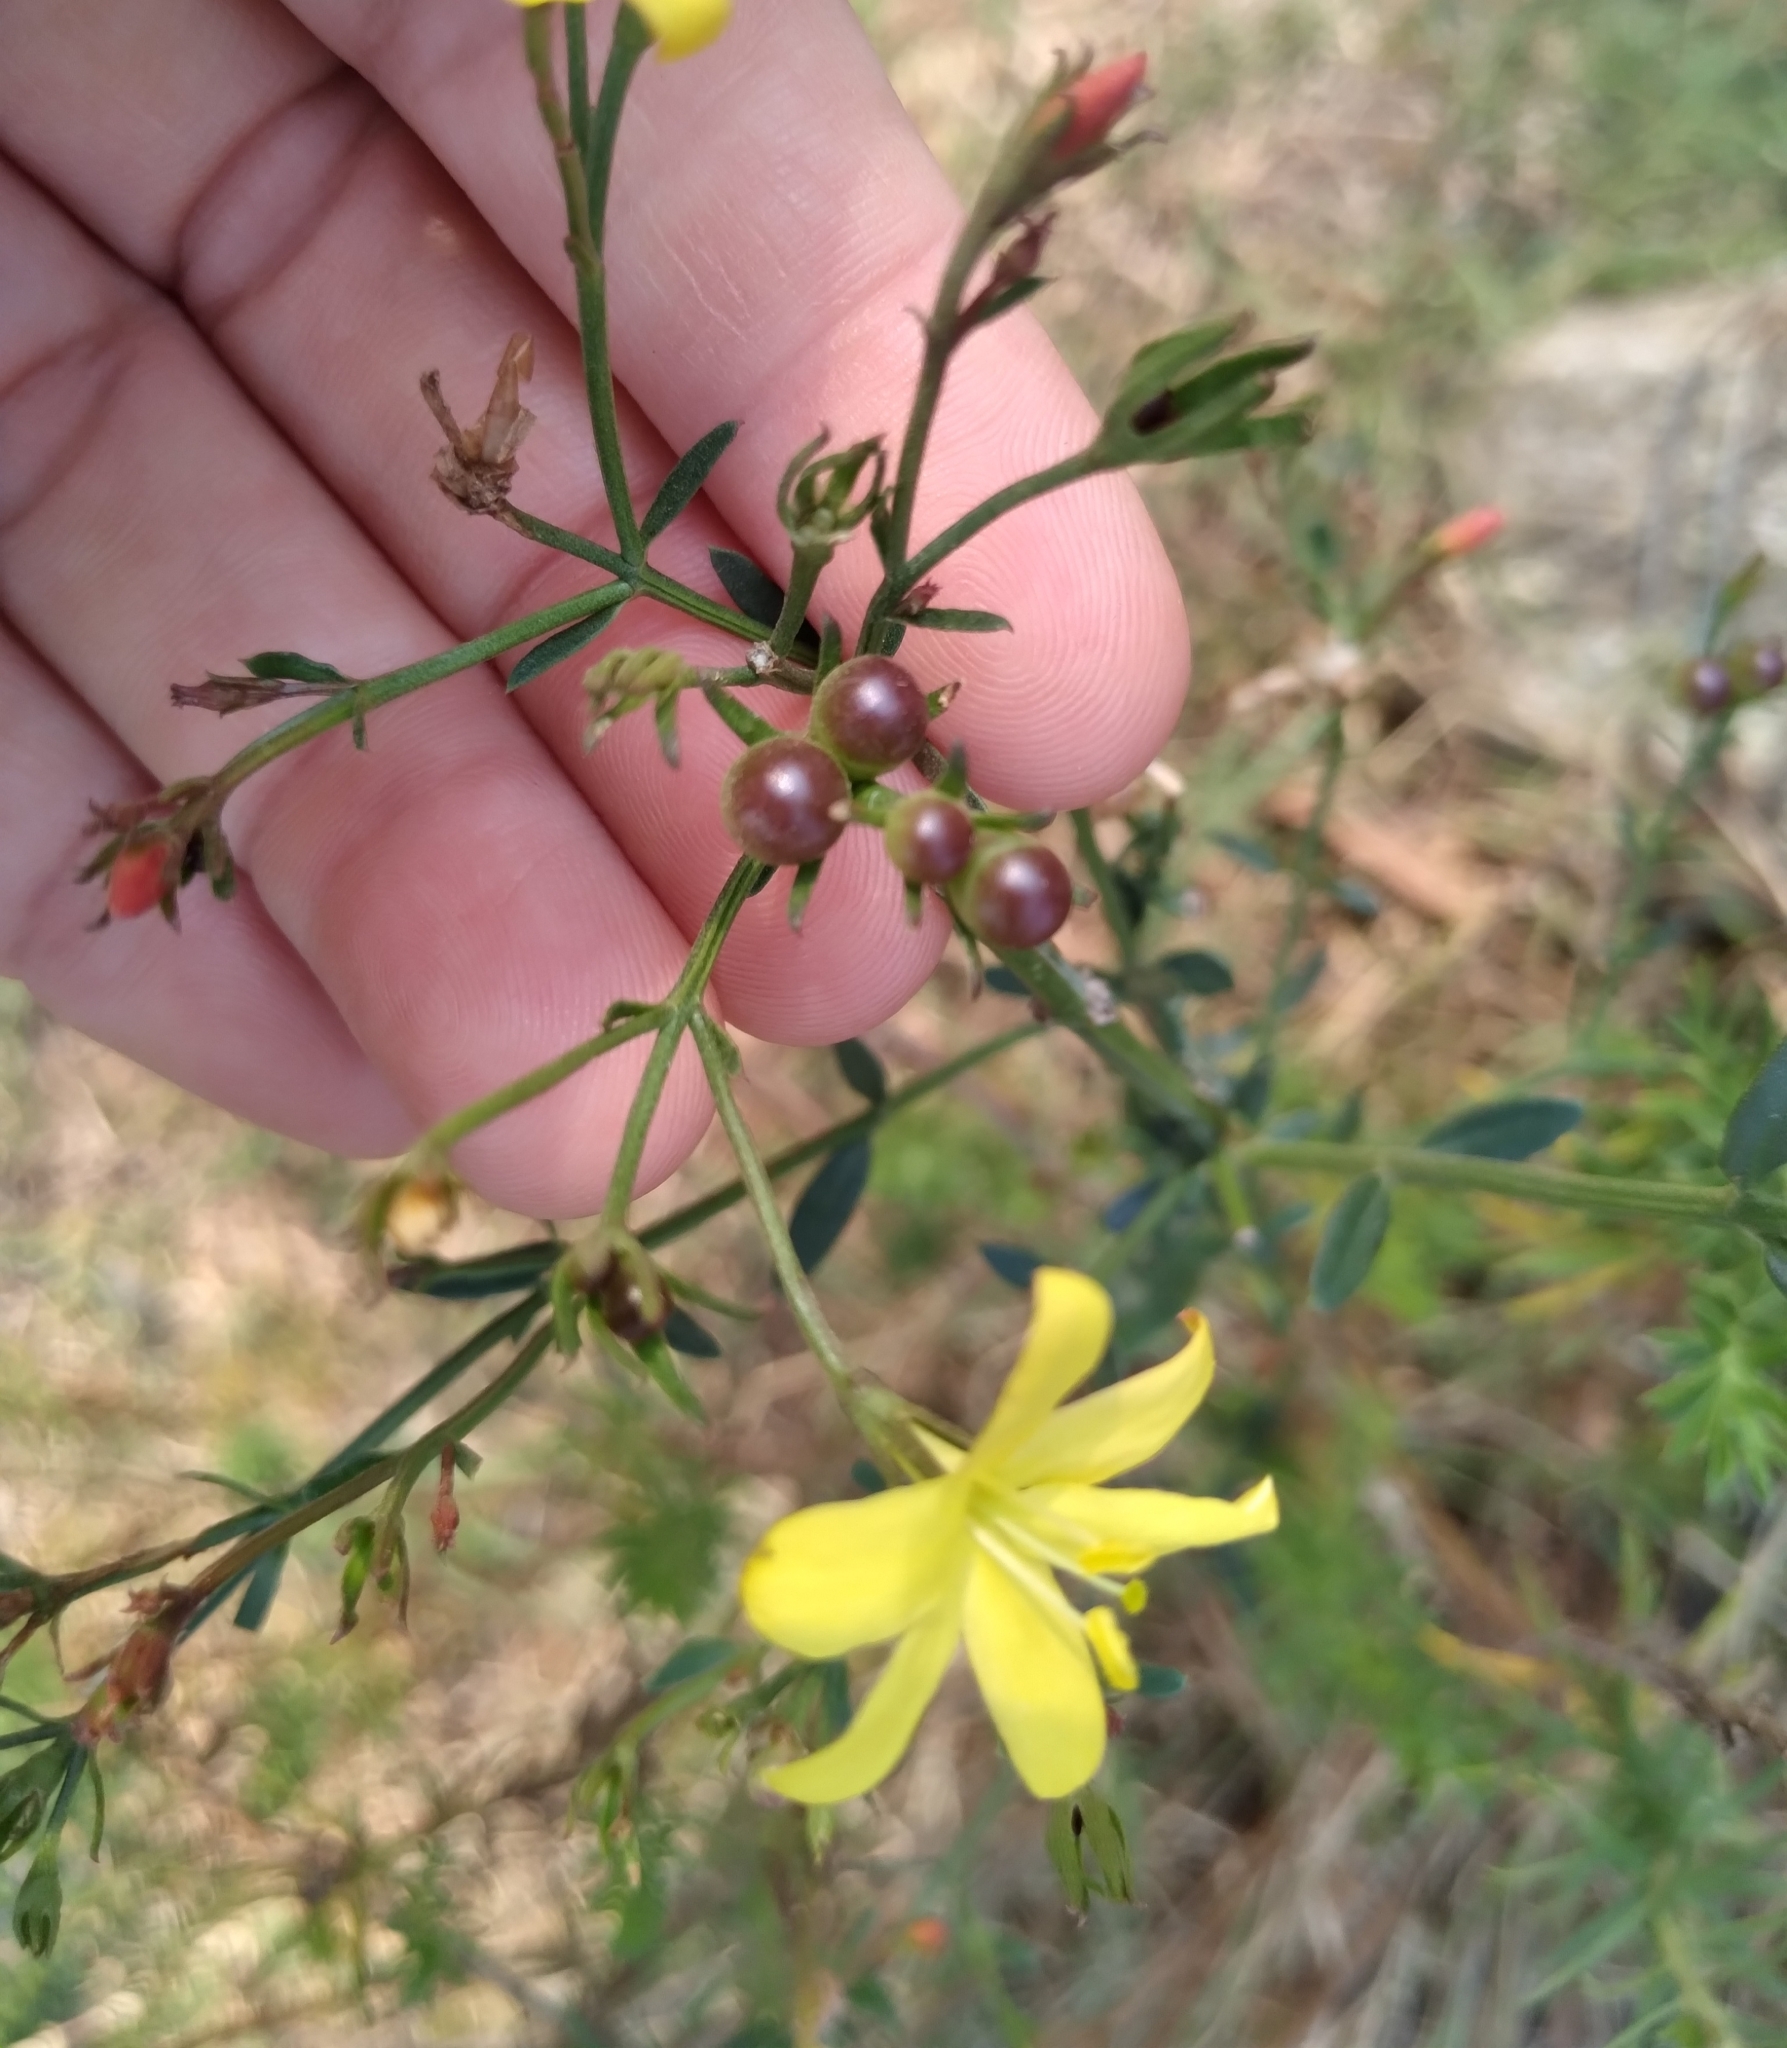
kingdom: Plantae
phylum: Tracheophyta
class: Magnoliopsida
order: Lamiales
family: Oleaceae
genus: Menodora
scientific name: Menodora integrifolia
